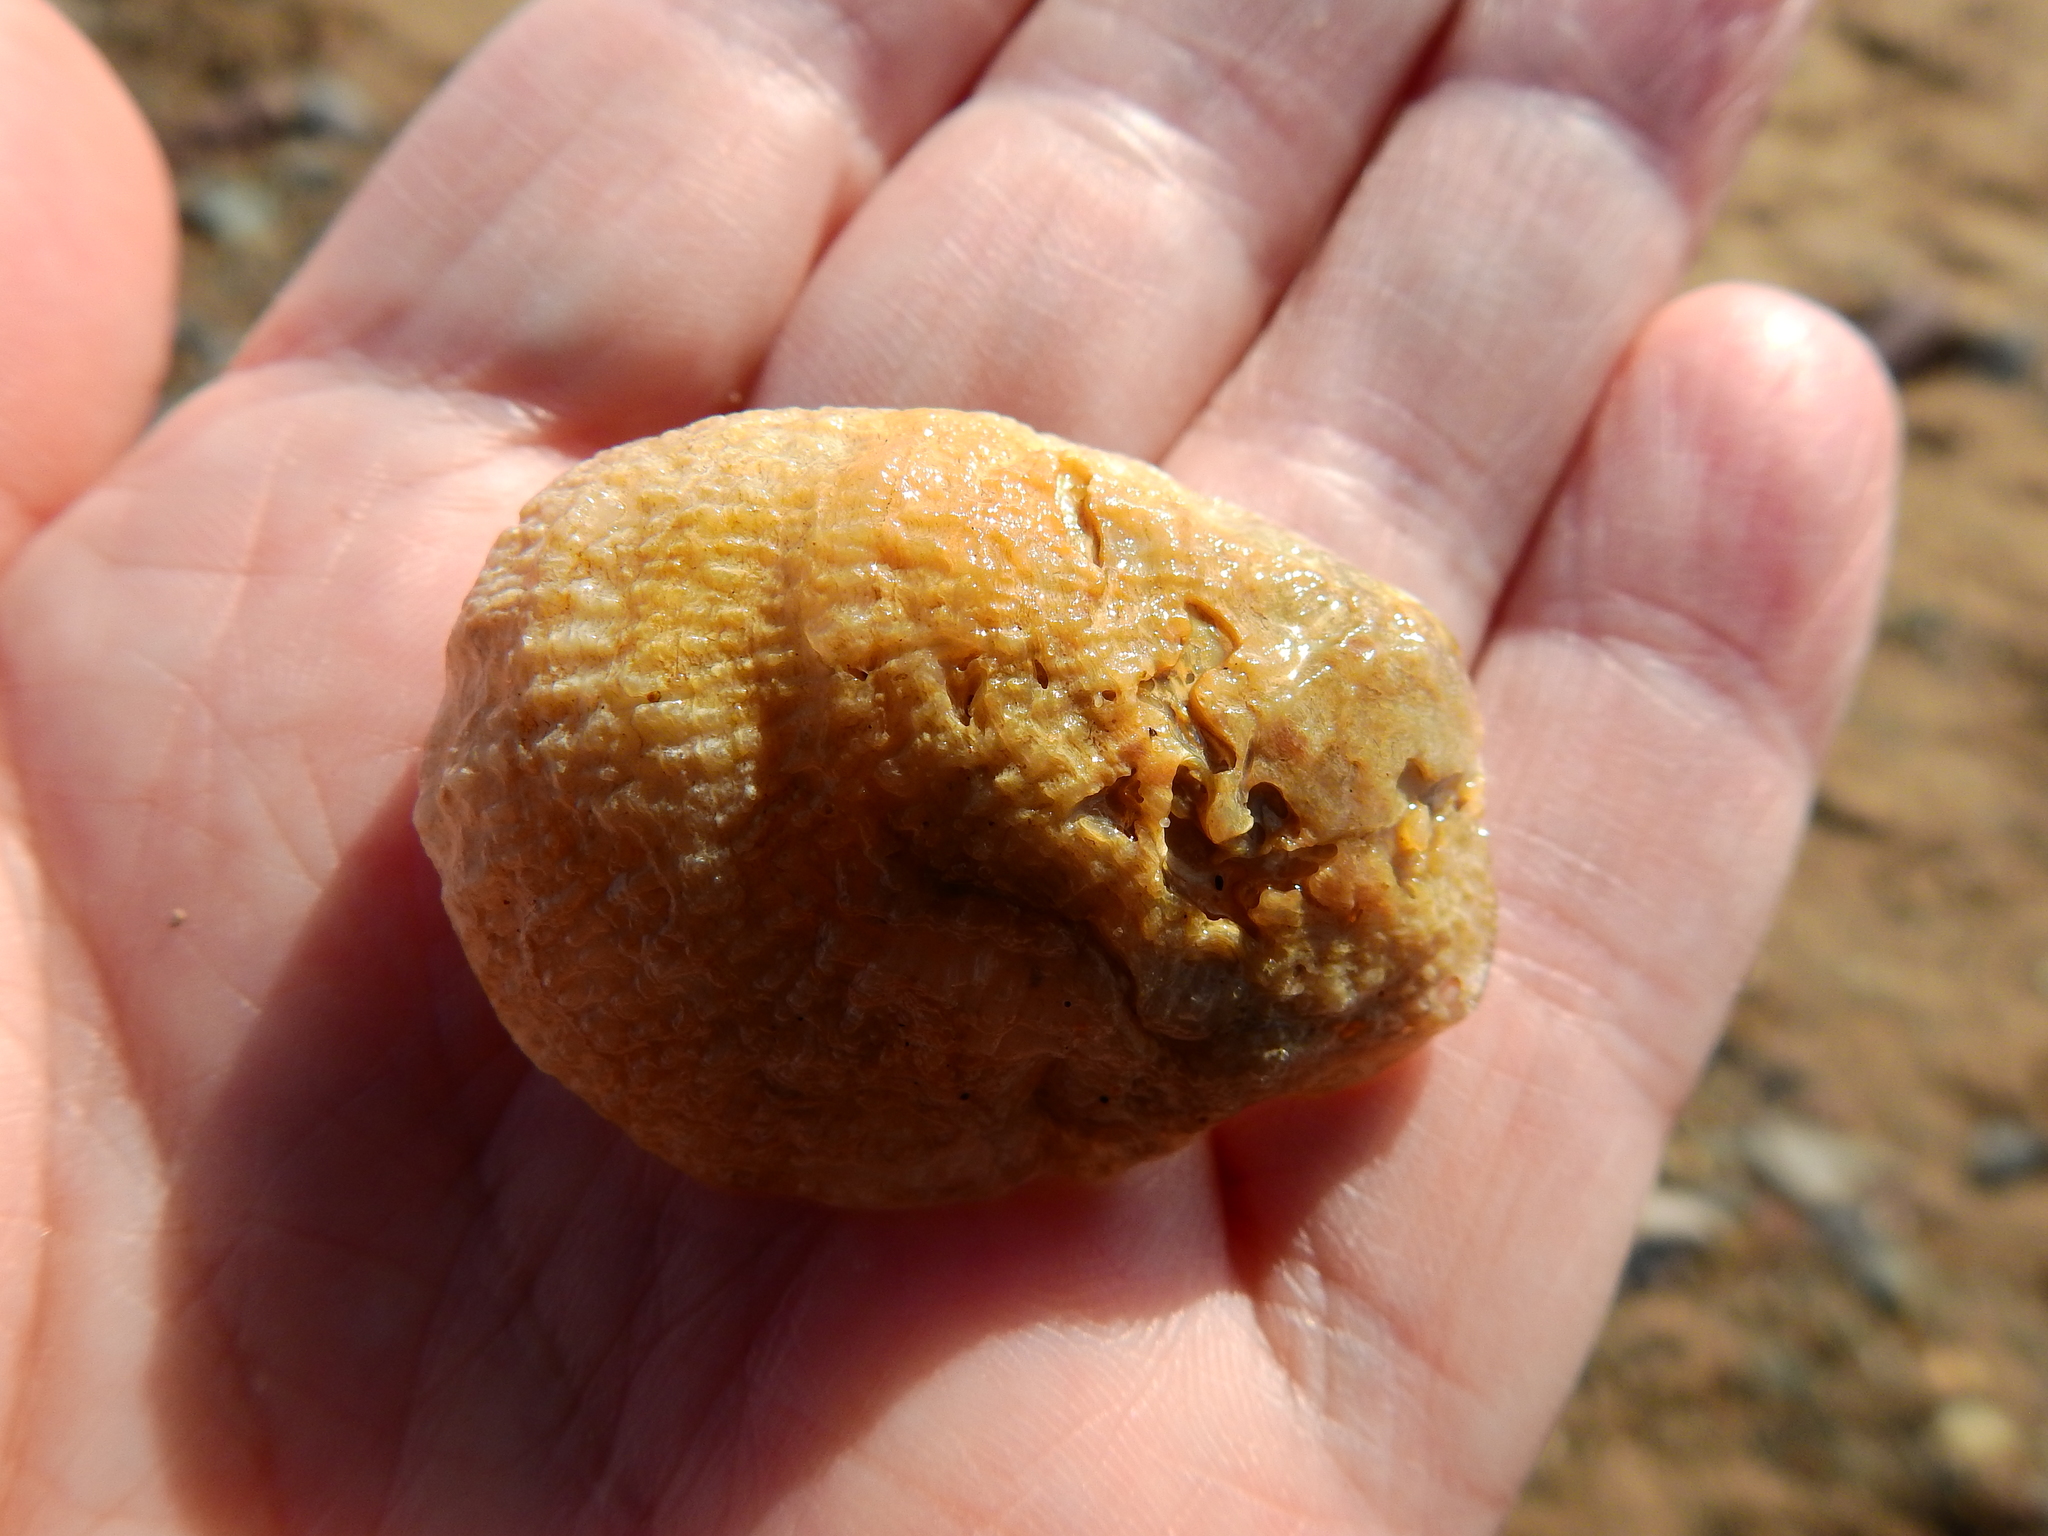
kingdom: Animalia
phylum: Mollusca
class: Bivalvia
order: Pectinida
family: Anomiidae
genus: Pododesmus
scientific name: Pododesmus patelliformis
